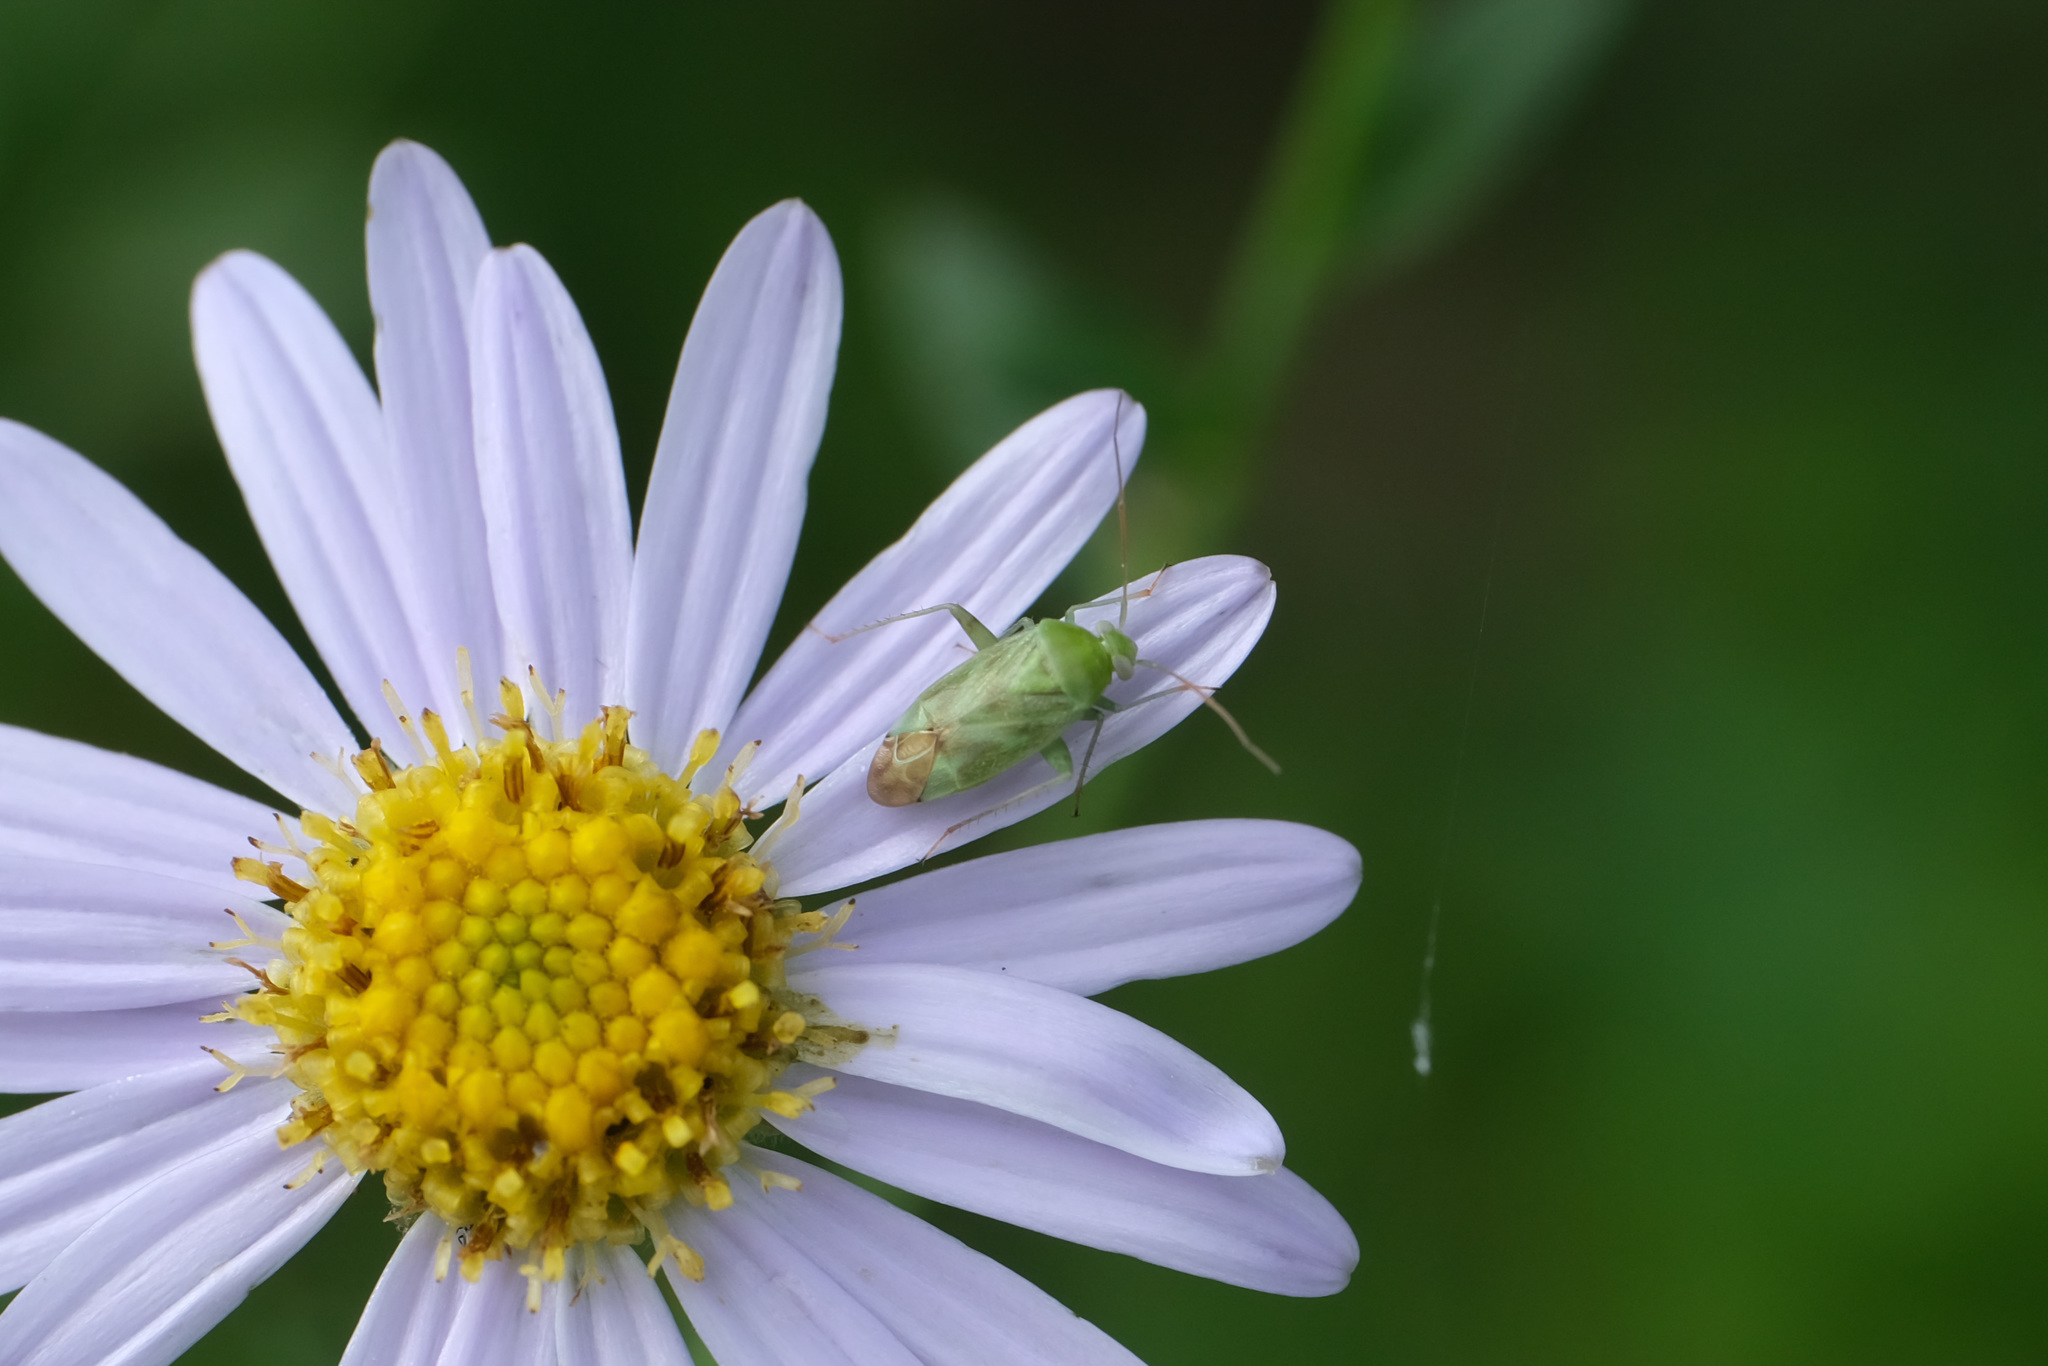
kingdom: Animalia
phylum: Arthropoda
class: Insecta
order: Hemiptera
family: Miridae
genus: Taylorilygus
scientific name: Taylorilygus apicalis
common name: Plant bug
